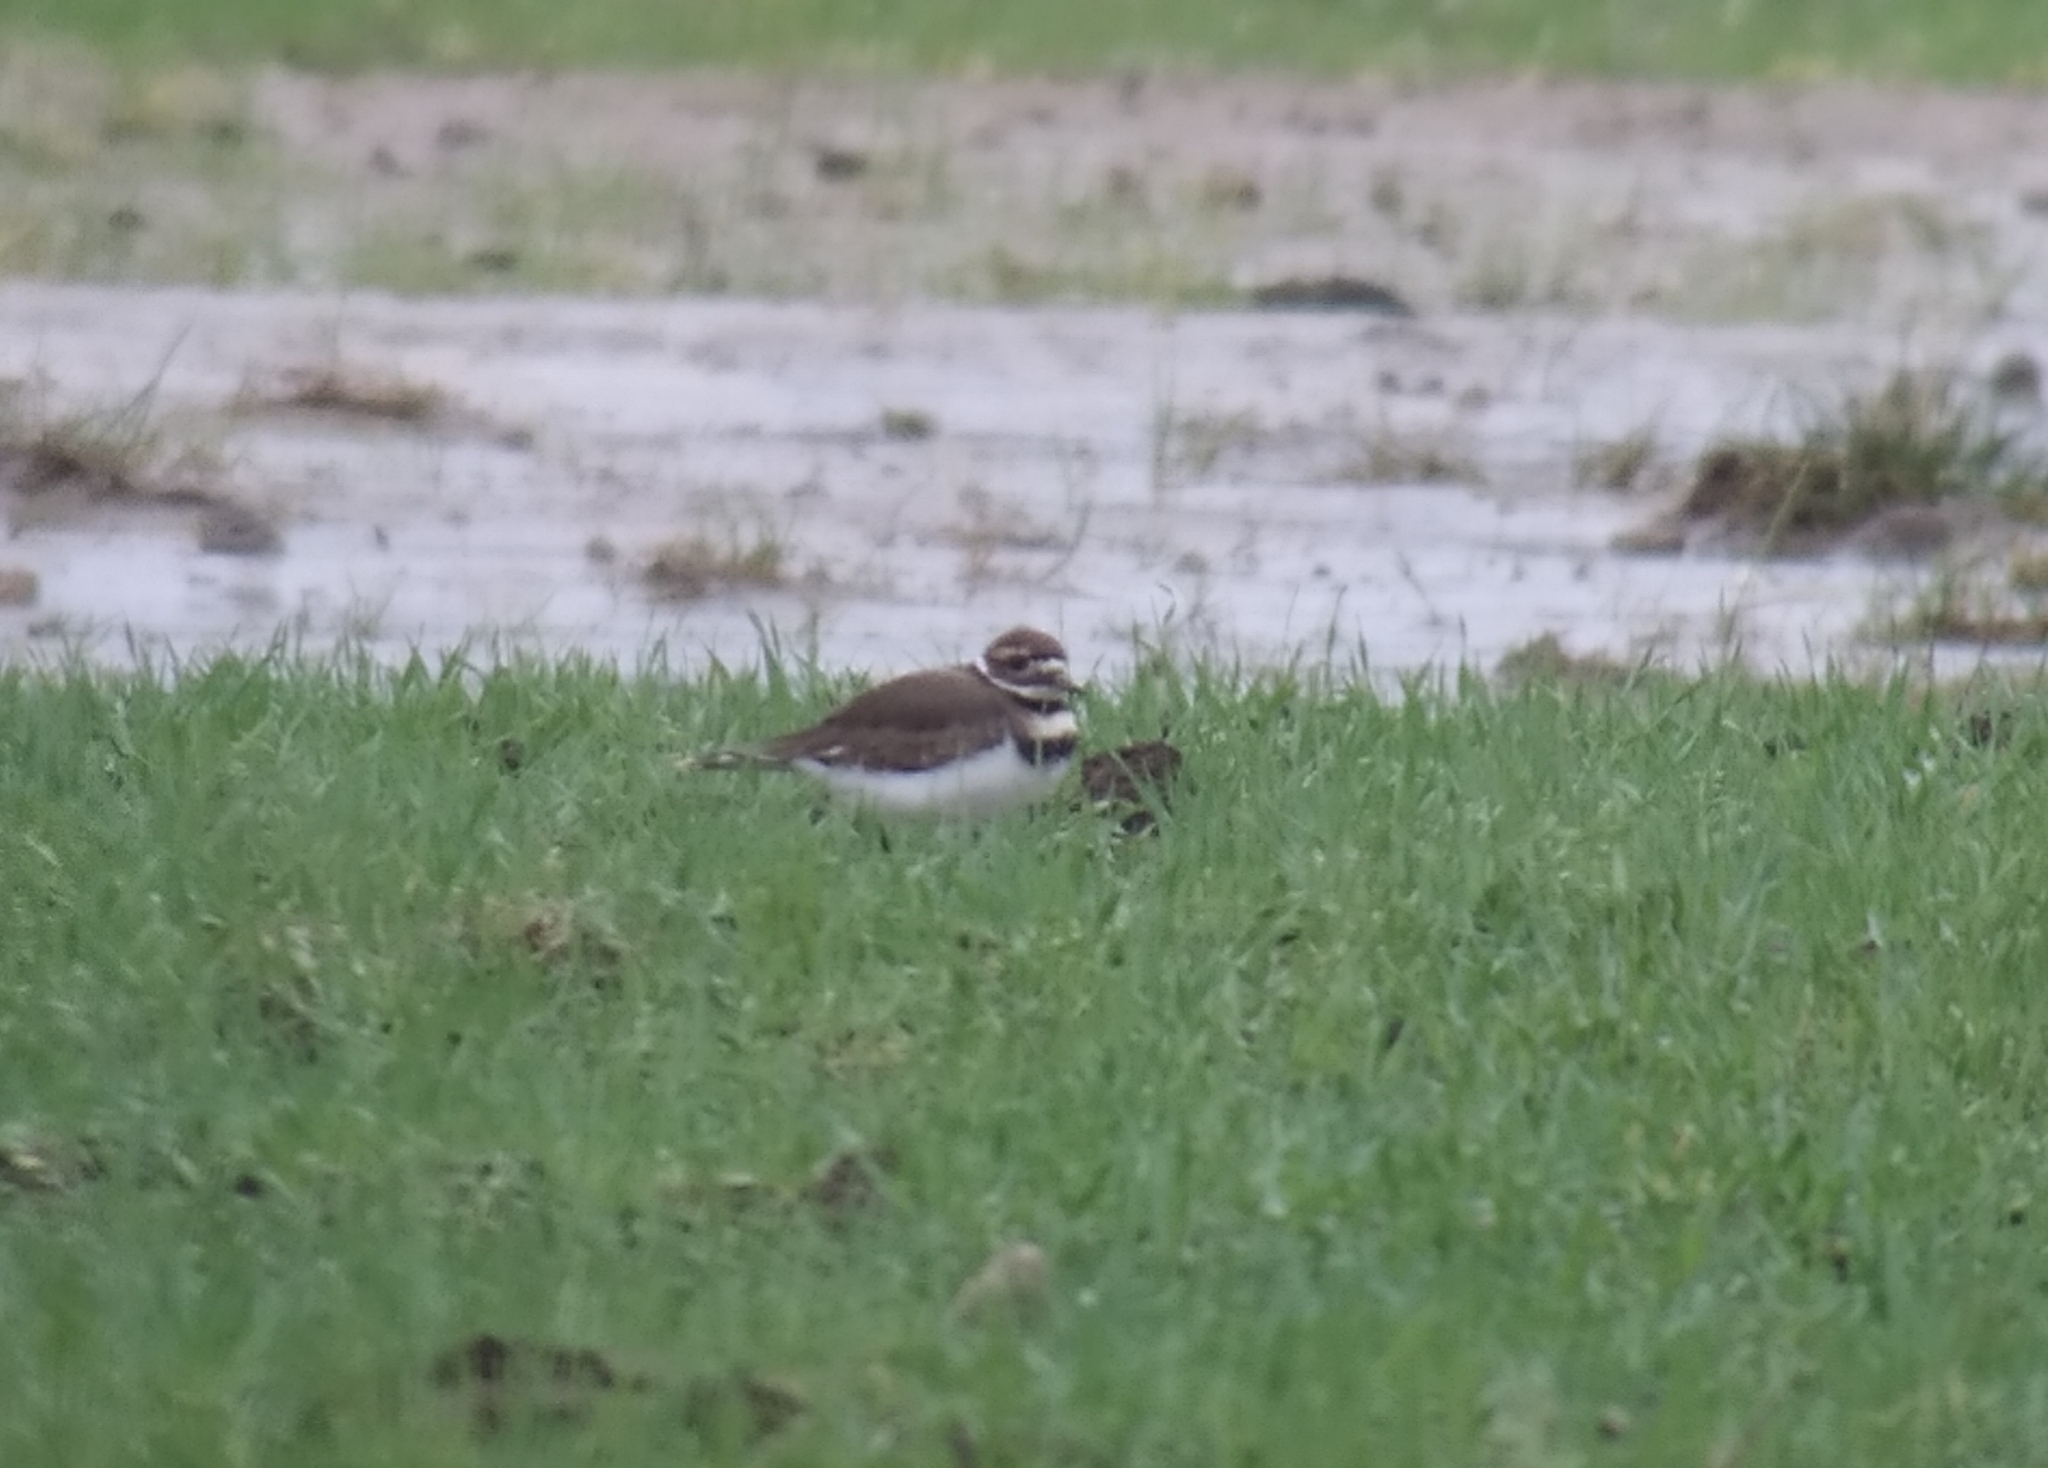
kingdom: Animalia
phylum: Chordata
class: Aves
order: Charadriiformes
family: Charadriidae
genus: Charadrius
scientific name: Charadrius vociferus
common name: Killdeer
